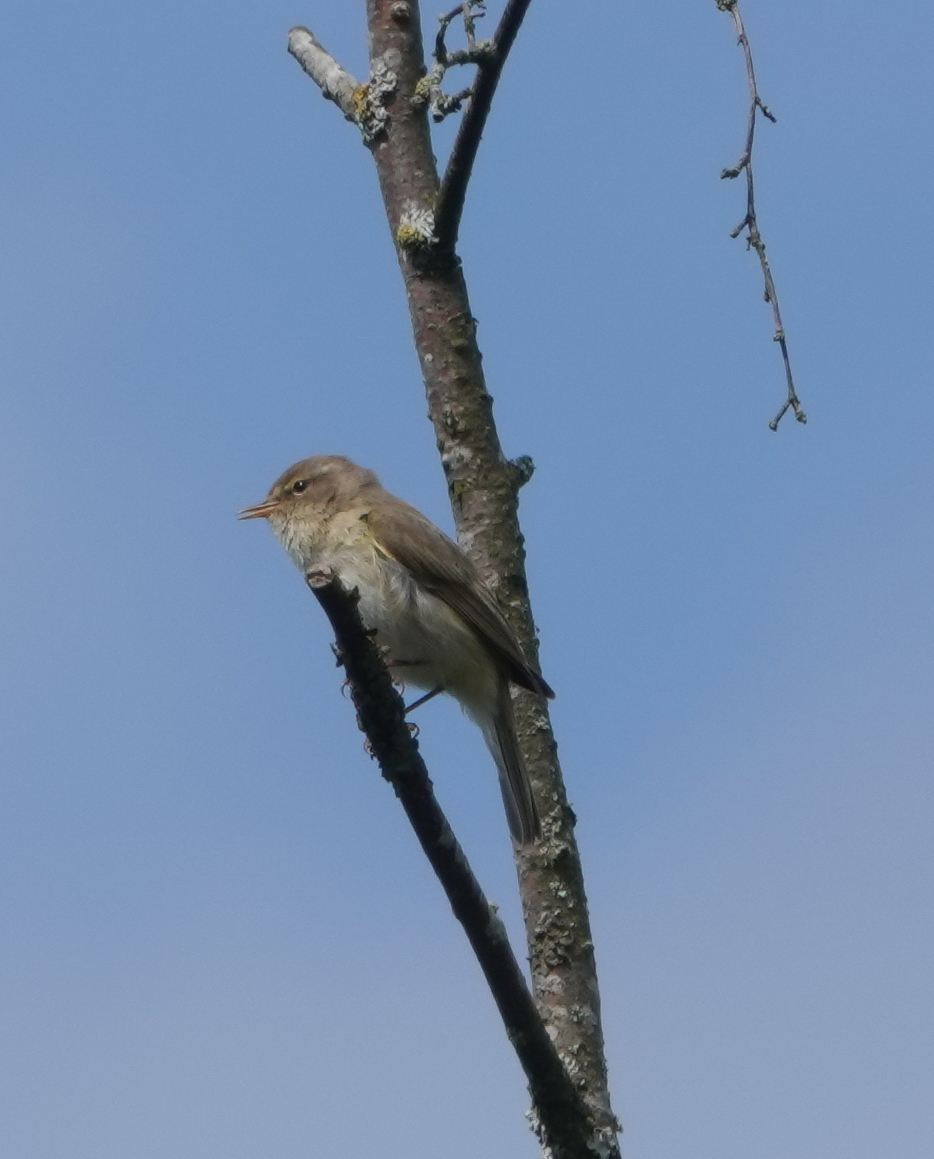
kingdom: Animalia
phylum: Chordata
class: Aves
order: Passeriformes
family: Phylloscopidae
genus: Phylloscopus
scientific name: Phylloscopus collybita
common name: Common chiffchaff
